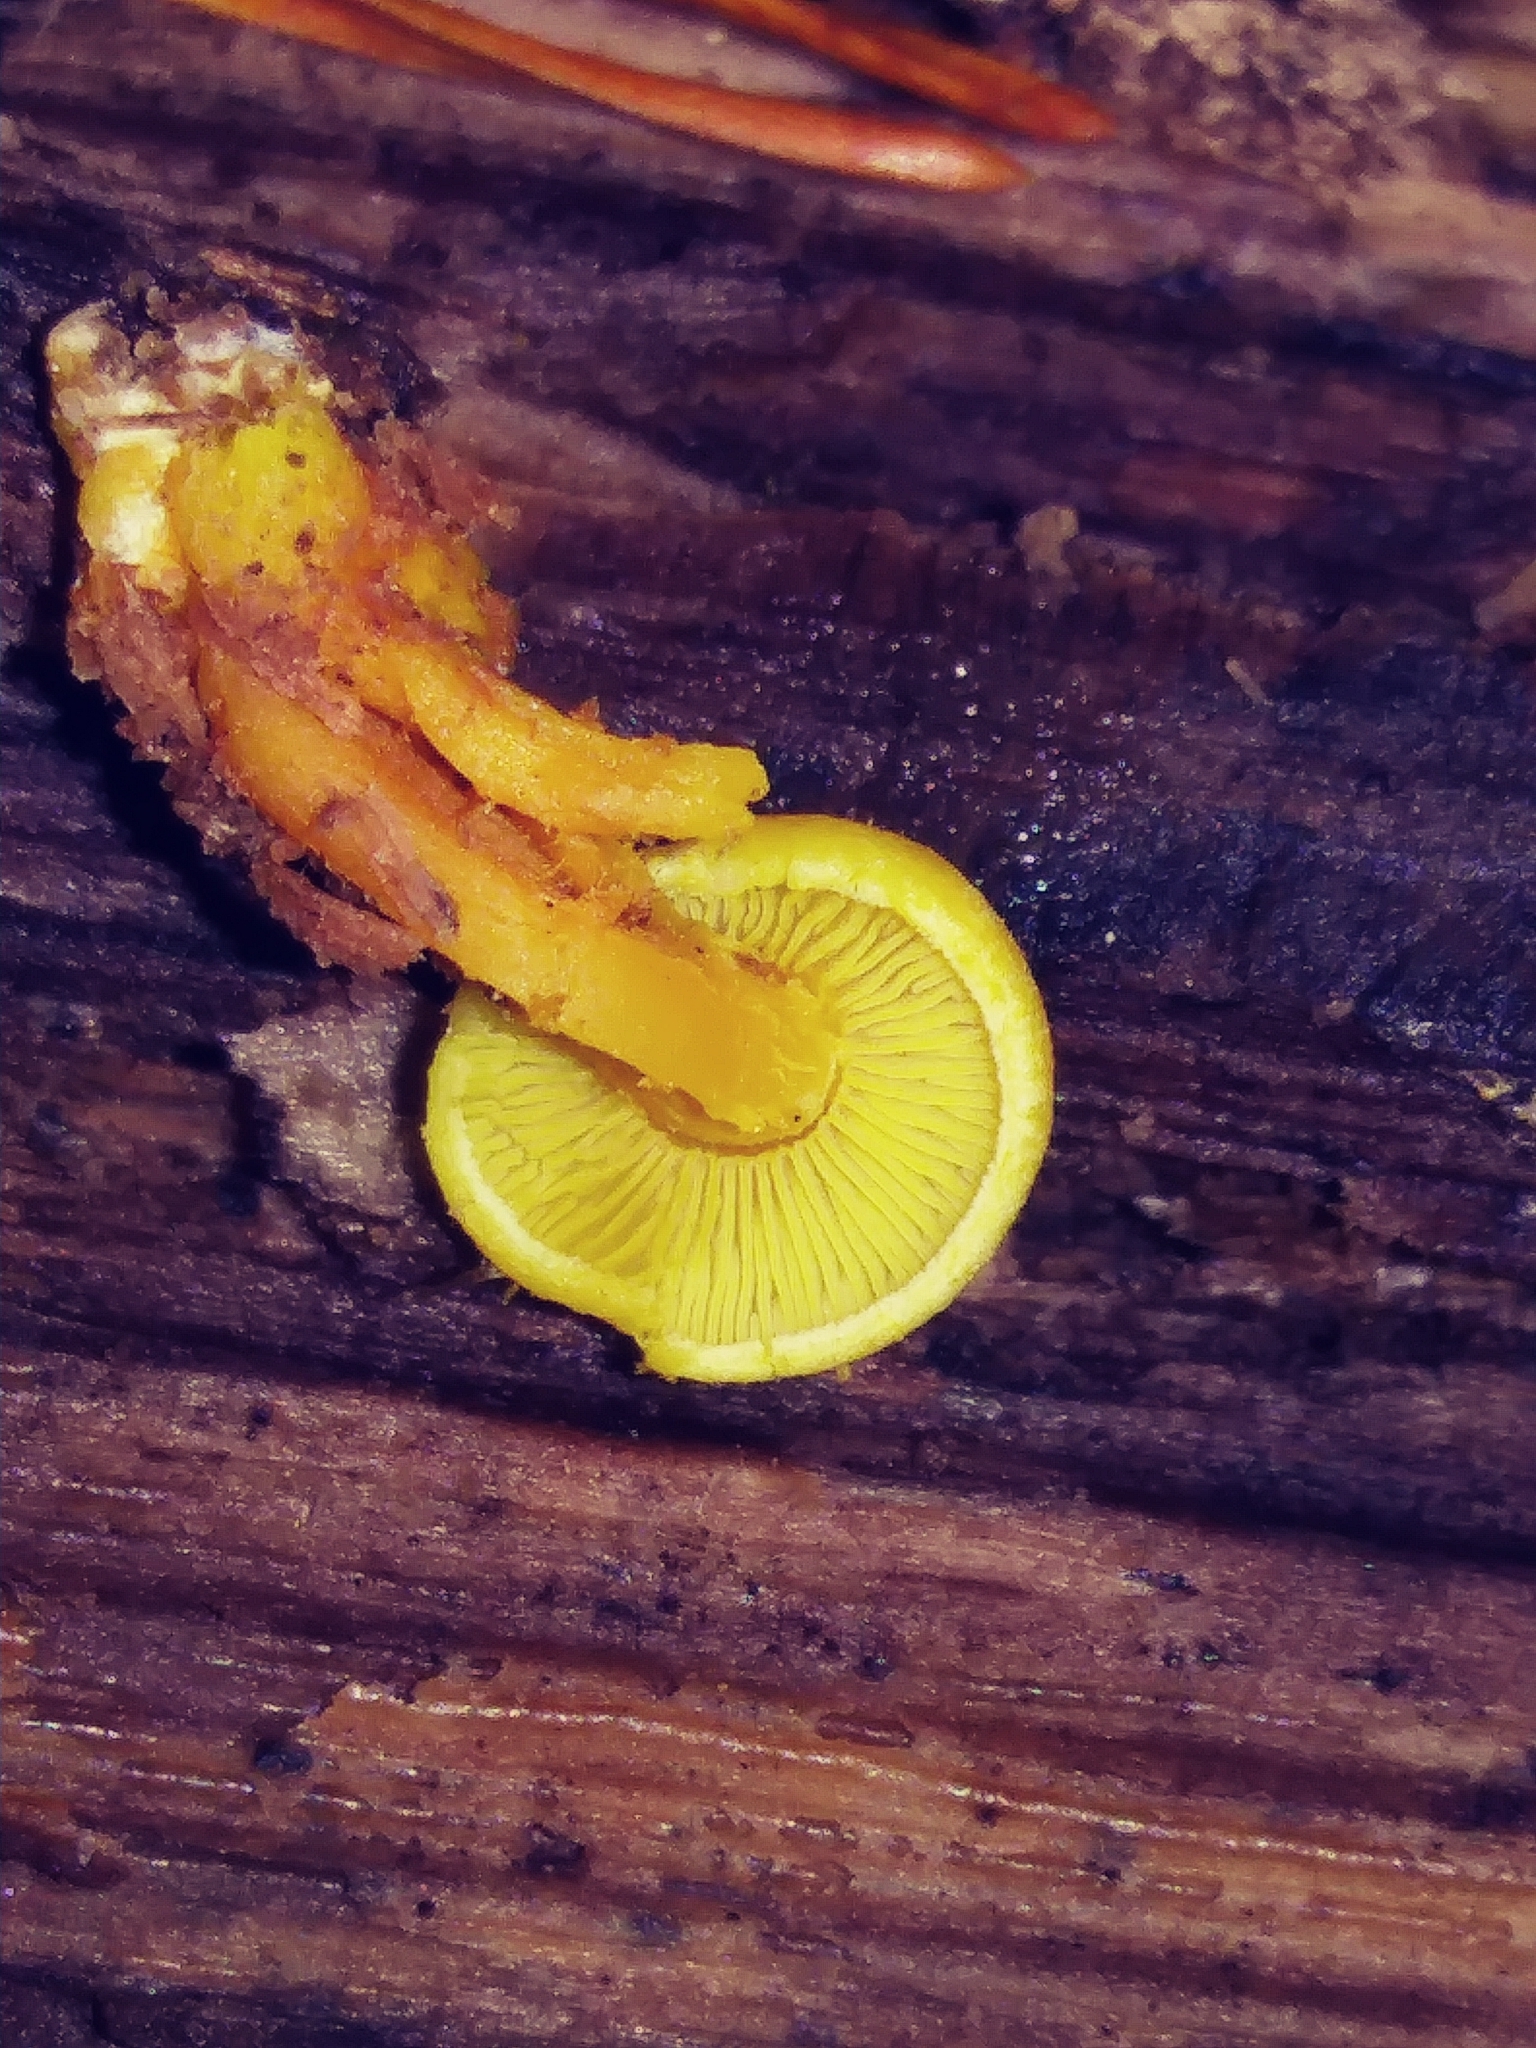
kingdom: Fungi
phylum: Basidiomycota
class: Agaricomycetes
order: Agaricales
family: Strophariaceae
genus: Hypholoma
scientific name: Hypholoma fasciculare
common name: Sulphur tuft
